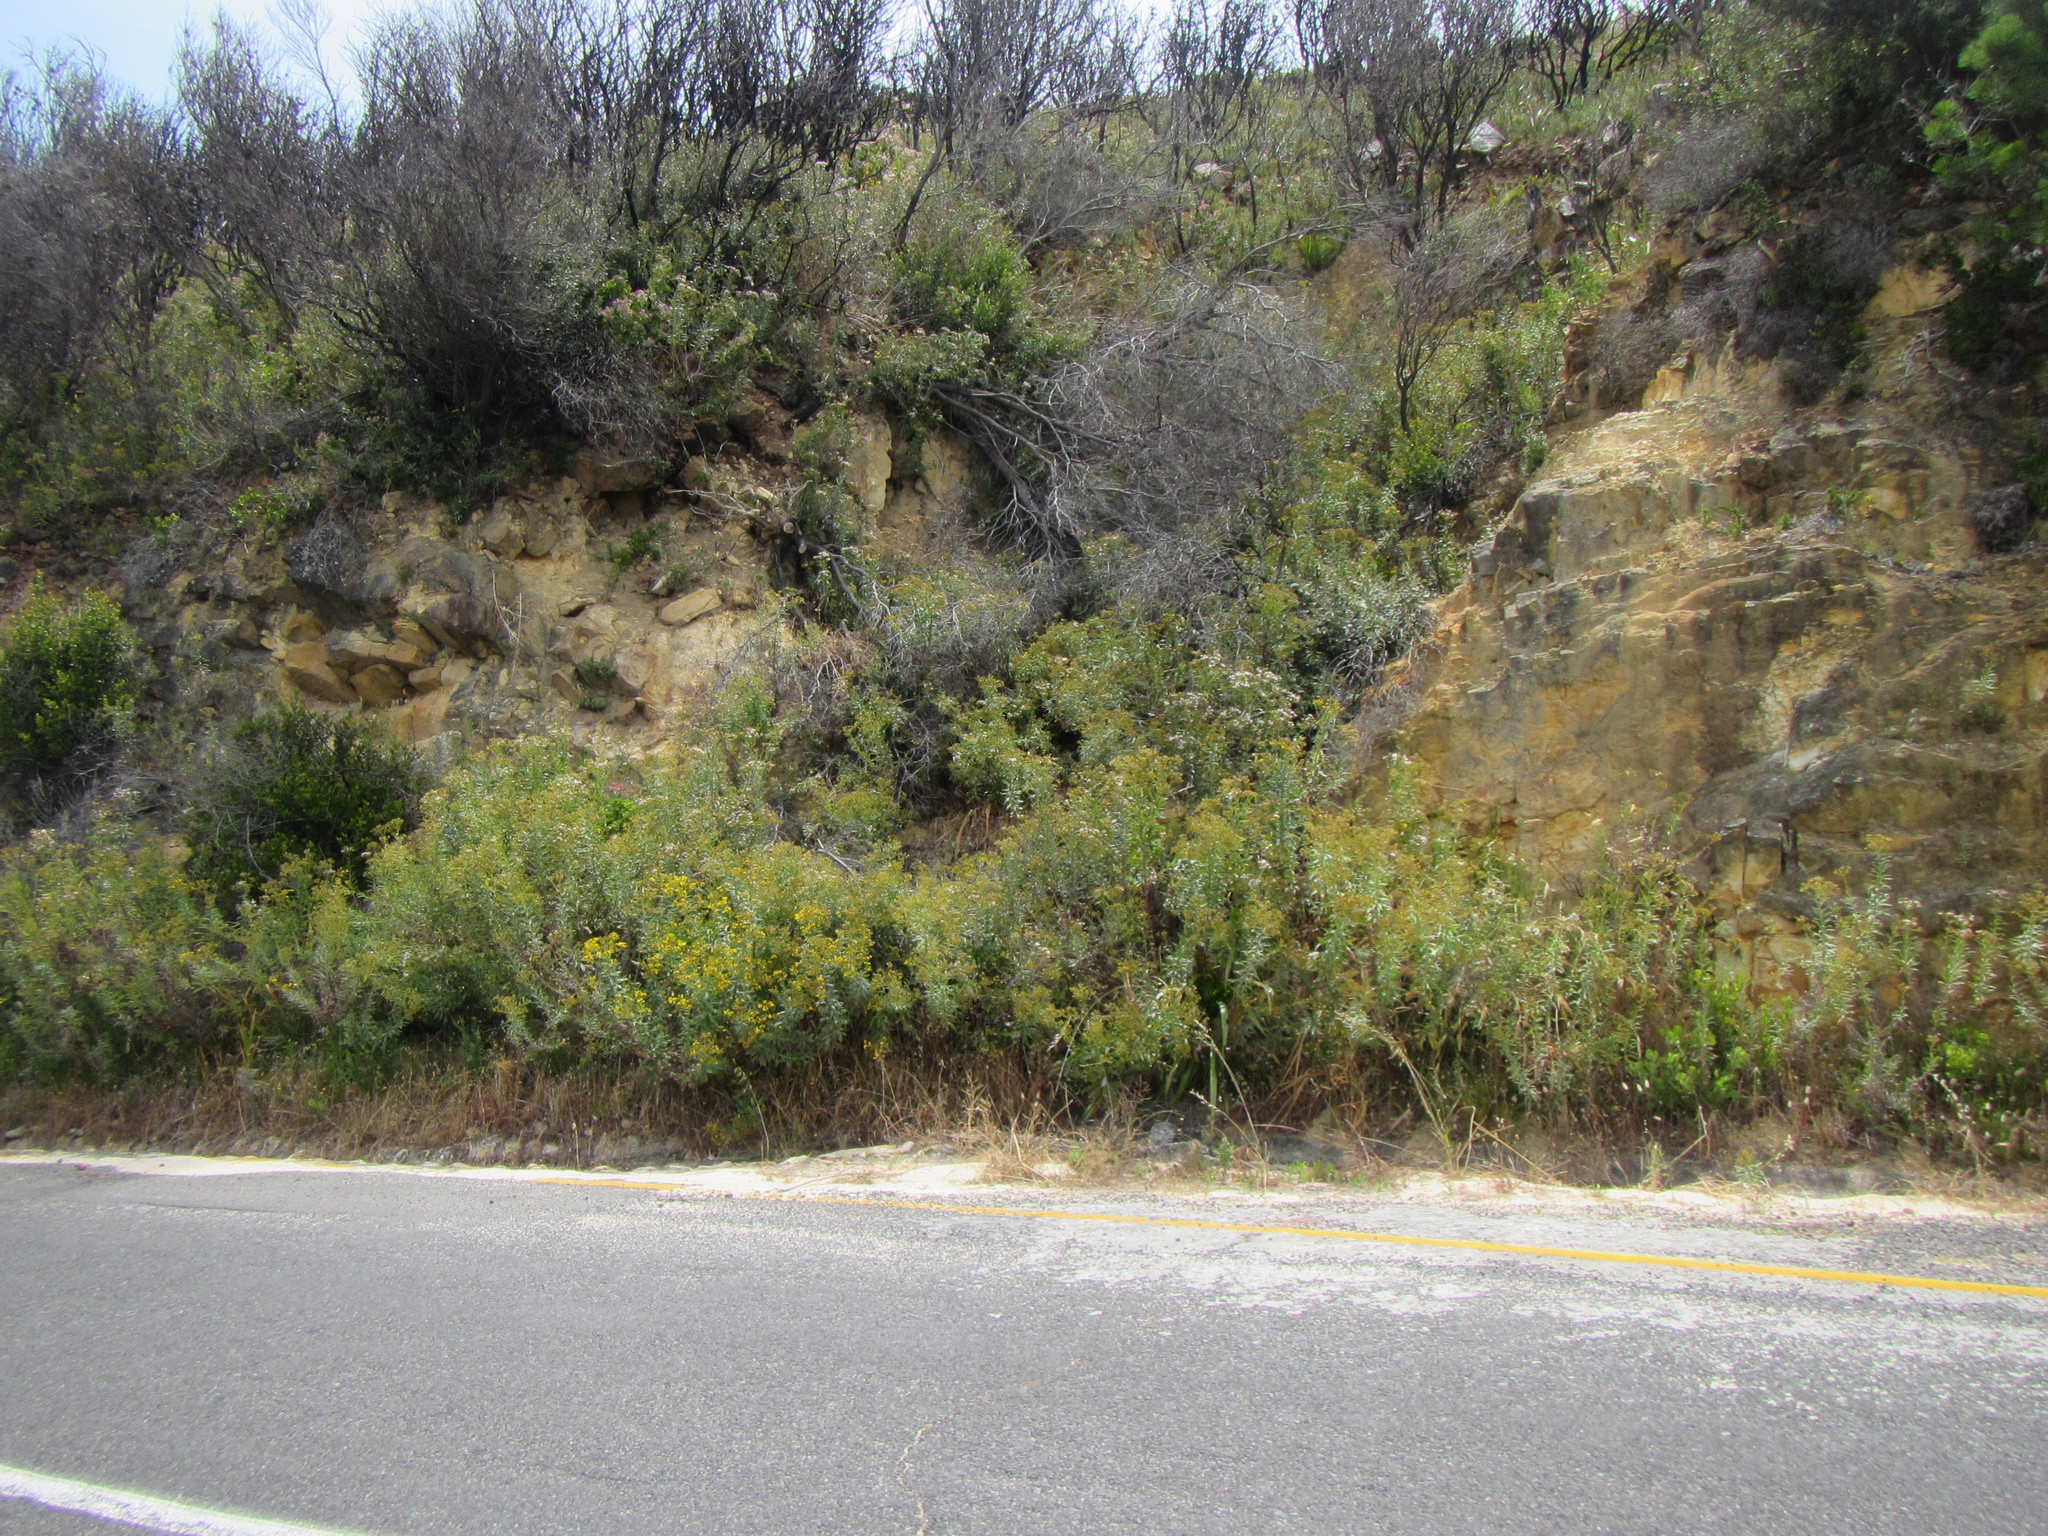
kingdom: Plantae
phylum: Tracheophyta
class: Magnoliopsida
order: Asterales
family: Asteraceae
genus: Senecio
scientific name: Senecio pterophorus
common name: Shoddy ragwort
